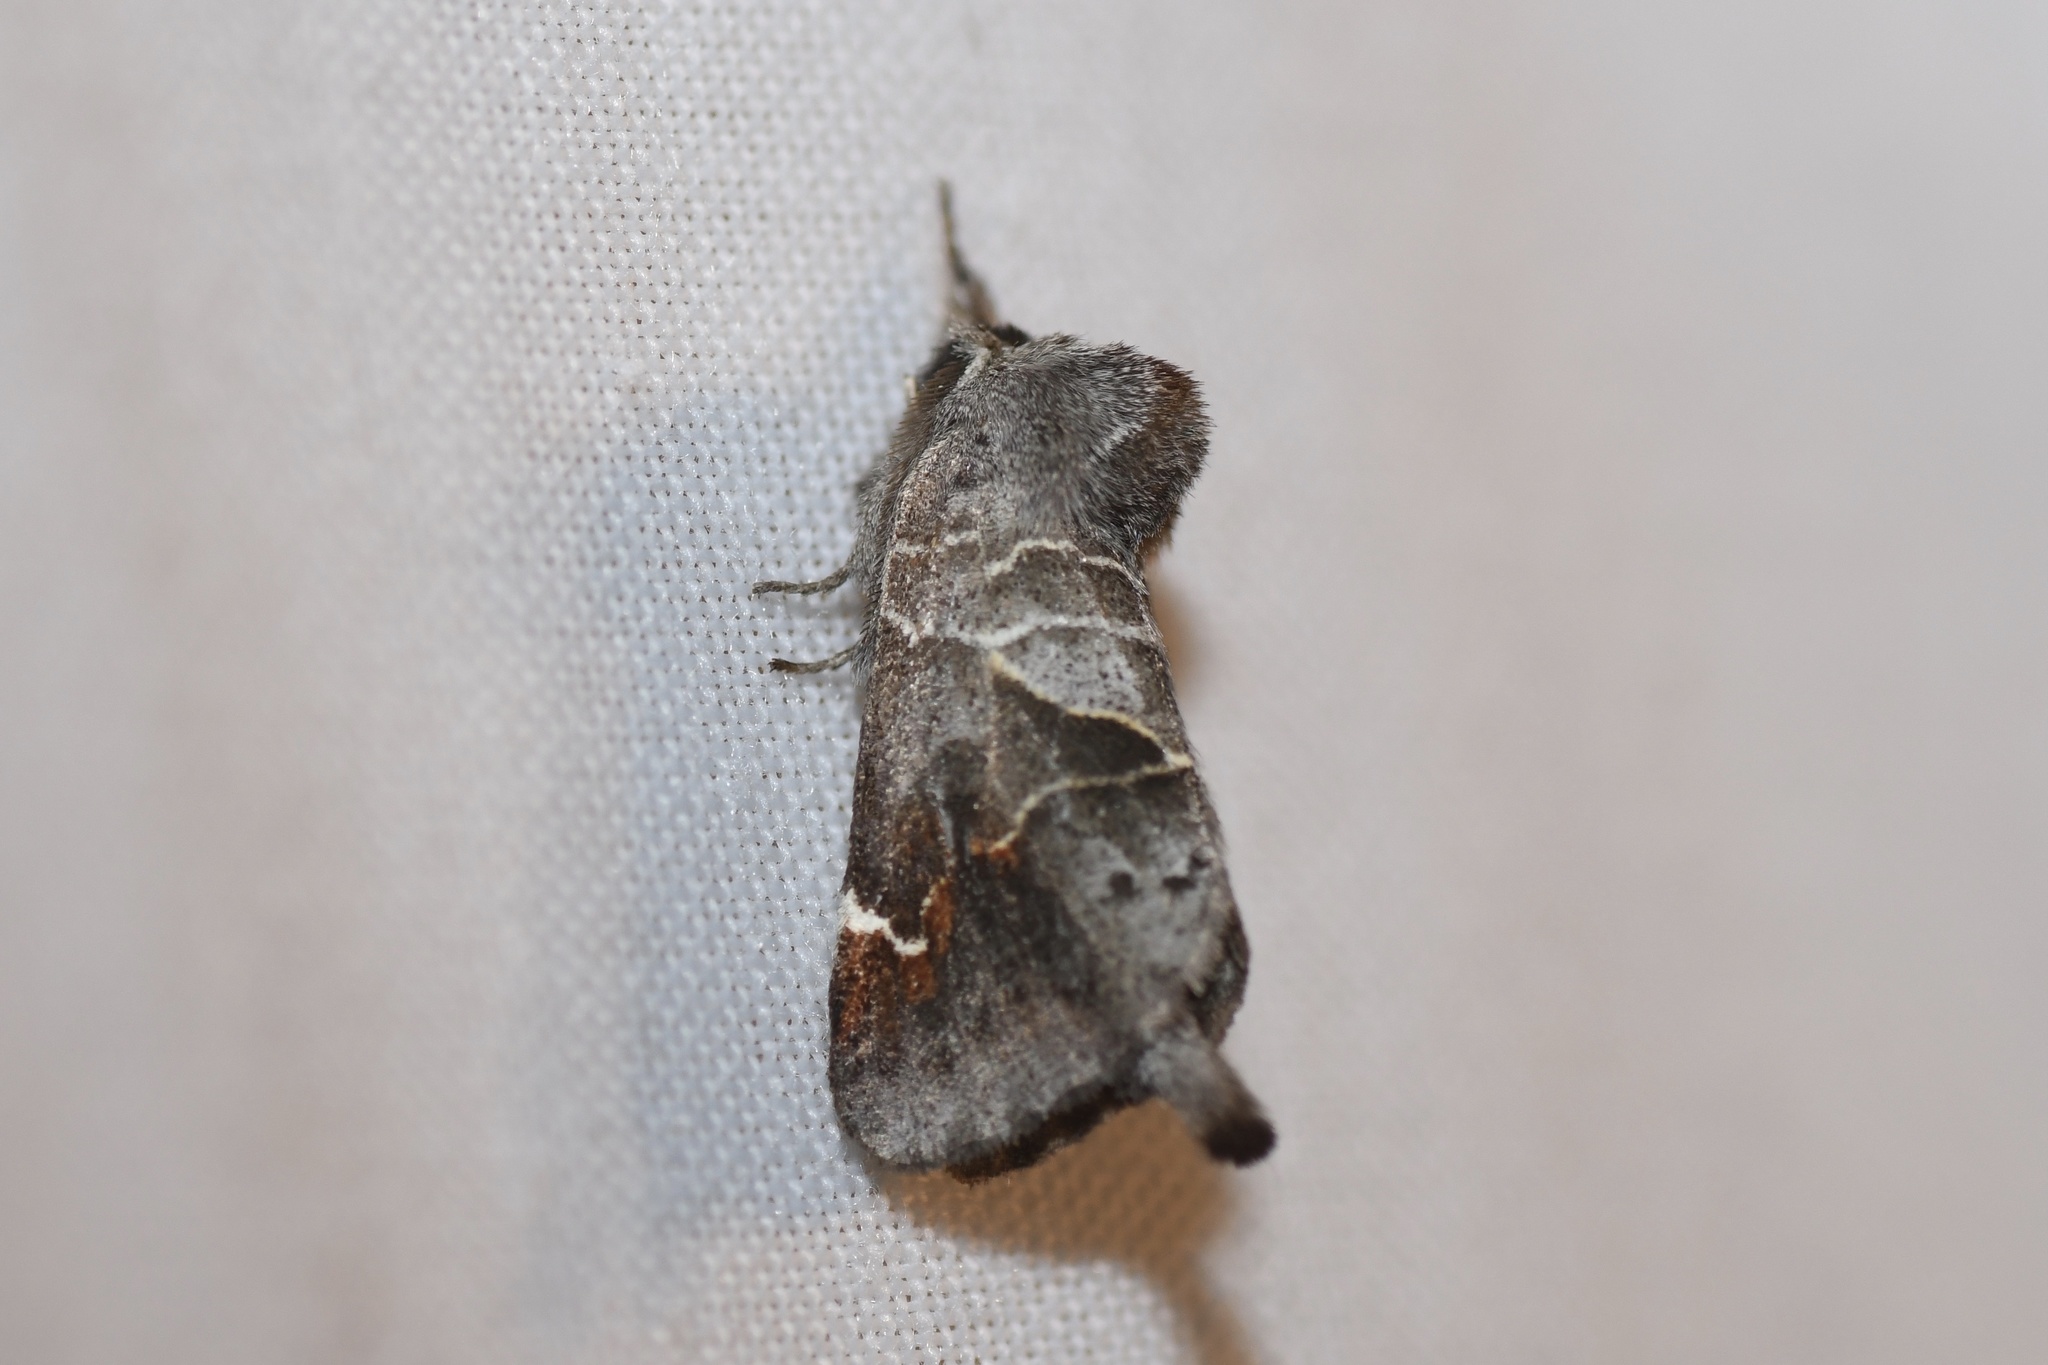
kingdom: Animalia
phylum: Arthropoda
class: Insecta
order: Lepidoptera
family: Notodontidae
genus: Clostera
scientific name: Clostera apicalis
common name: Apical prominent
